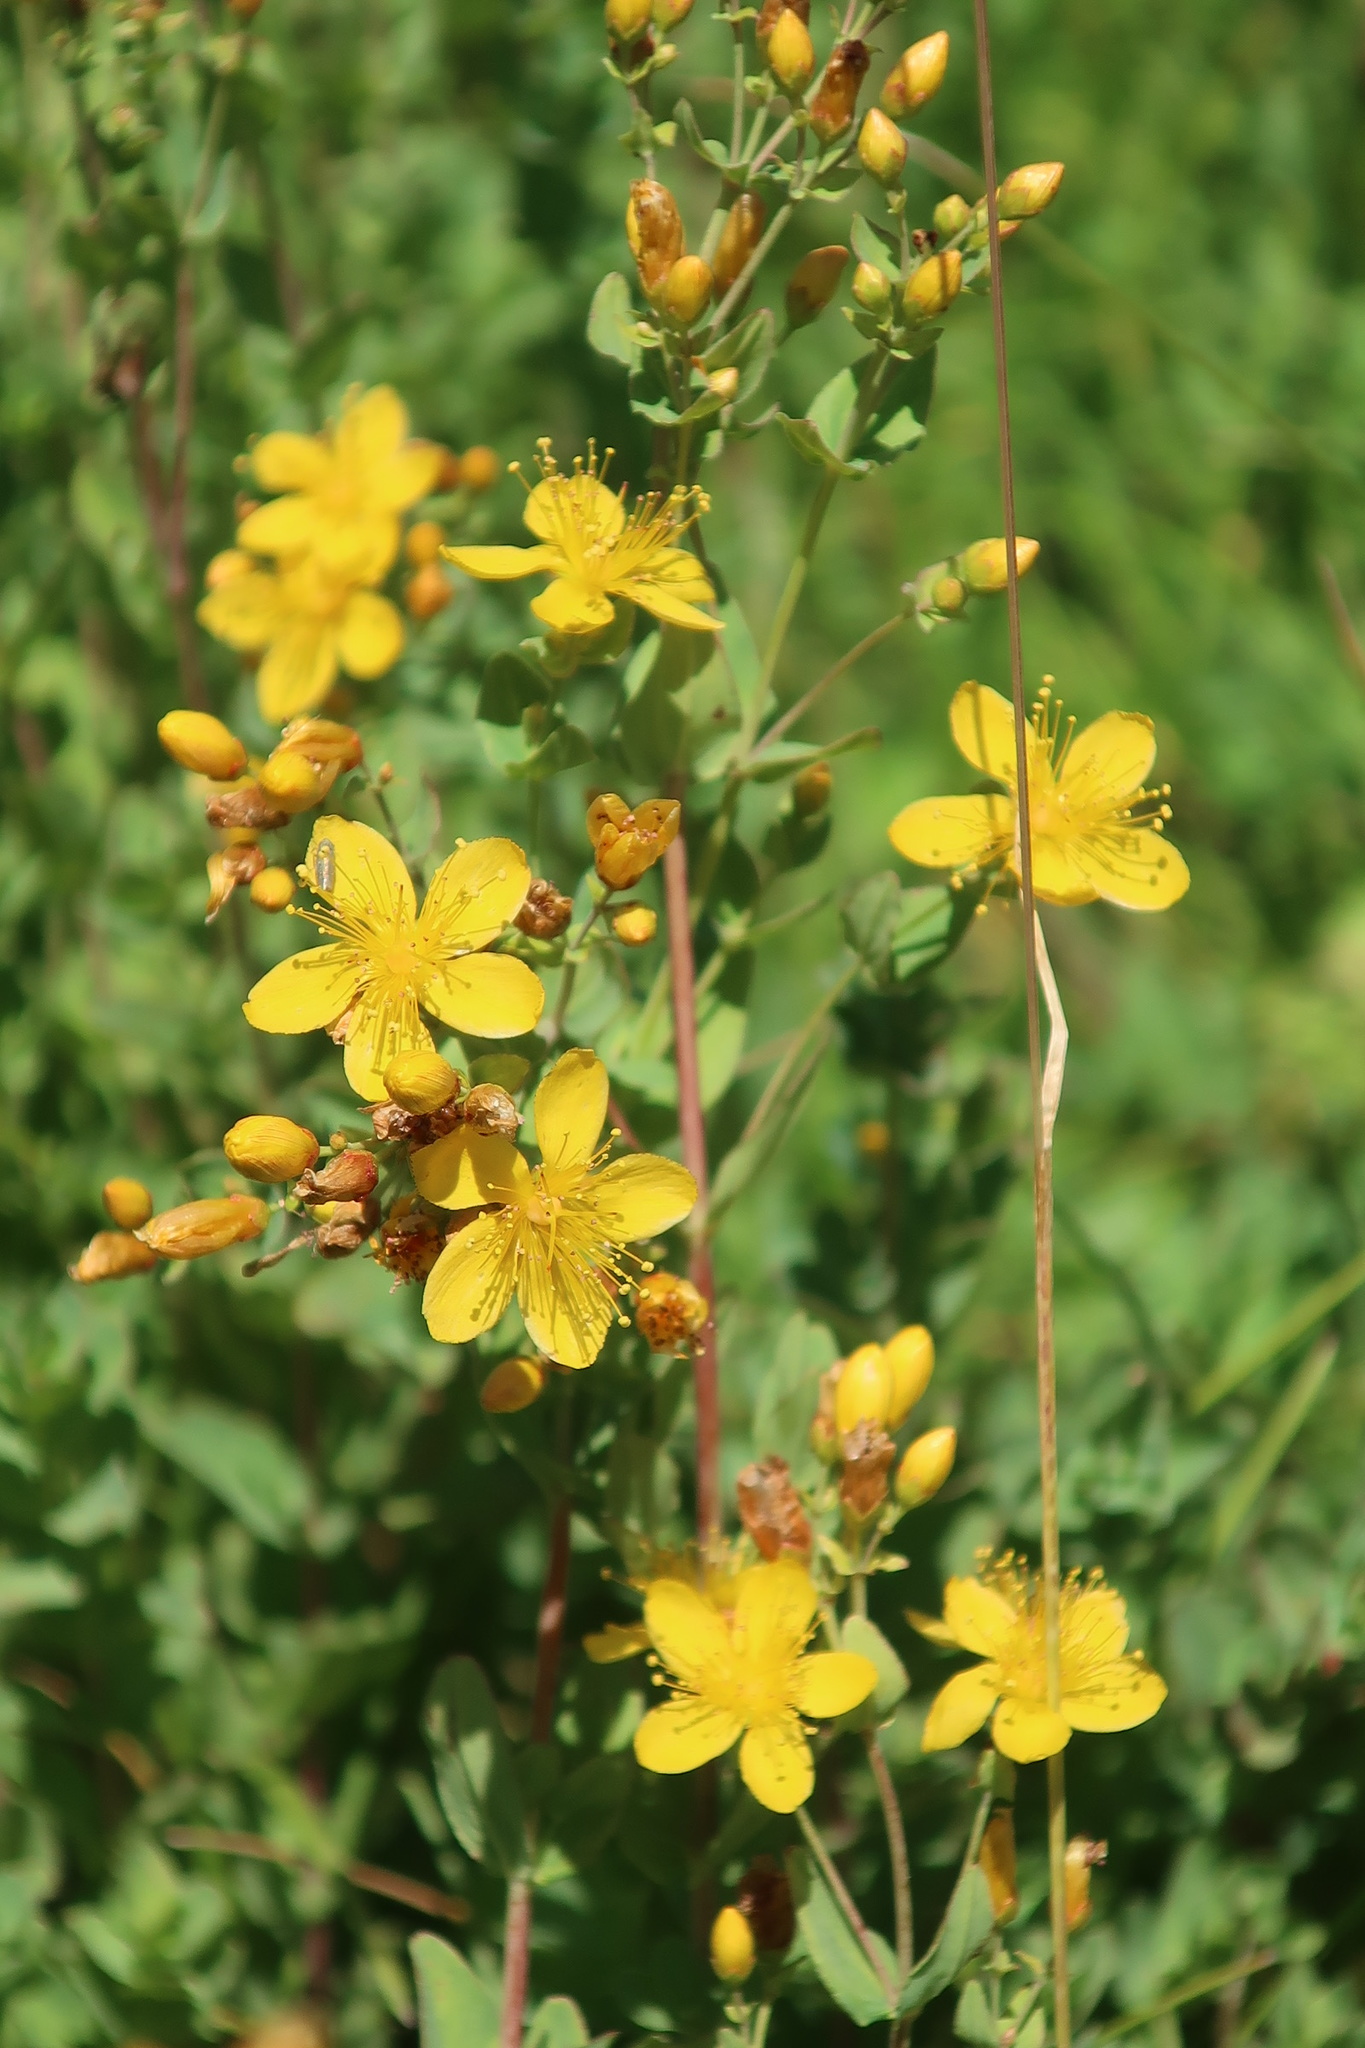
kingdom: Plantae
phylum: Tracheophyta
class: Magnoliopsida
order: Malpighiales
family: Hypericaceae
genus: Hypericum
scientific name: Hypericum scouleri
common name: Scouler's st. john's-wort
